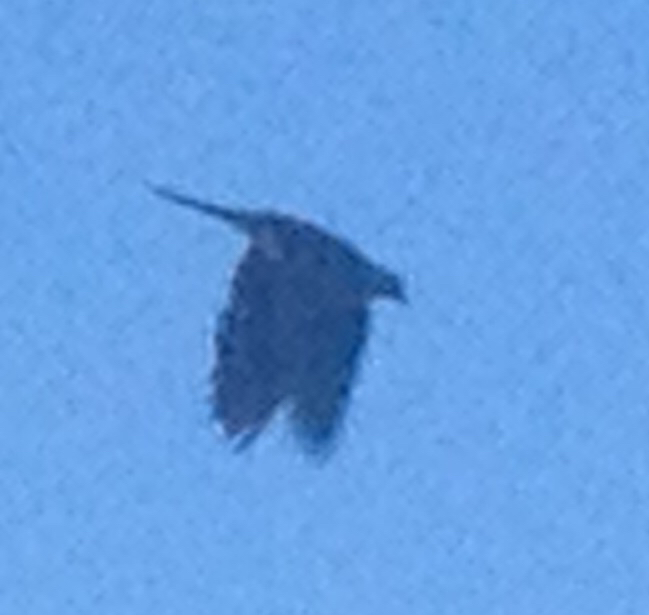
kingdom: Animalia
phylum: Chordata
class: Aves
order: Columbiformes
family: Columbidae
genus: Zenaida
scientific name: Zenaida macroura
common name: Mourning dove
